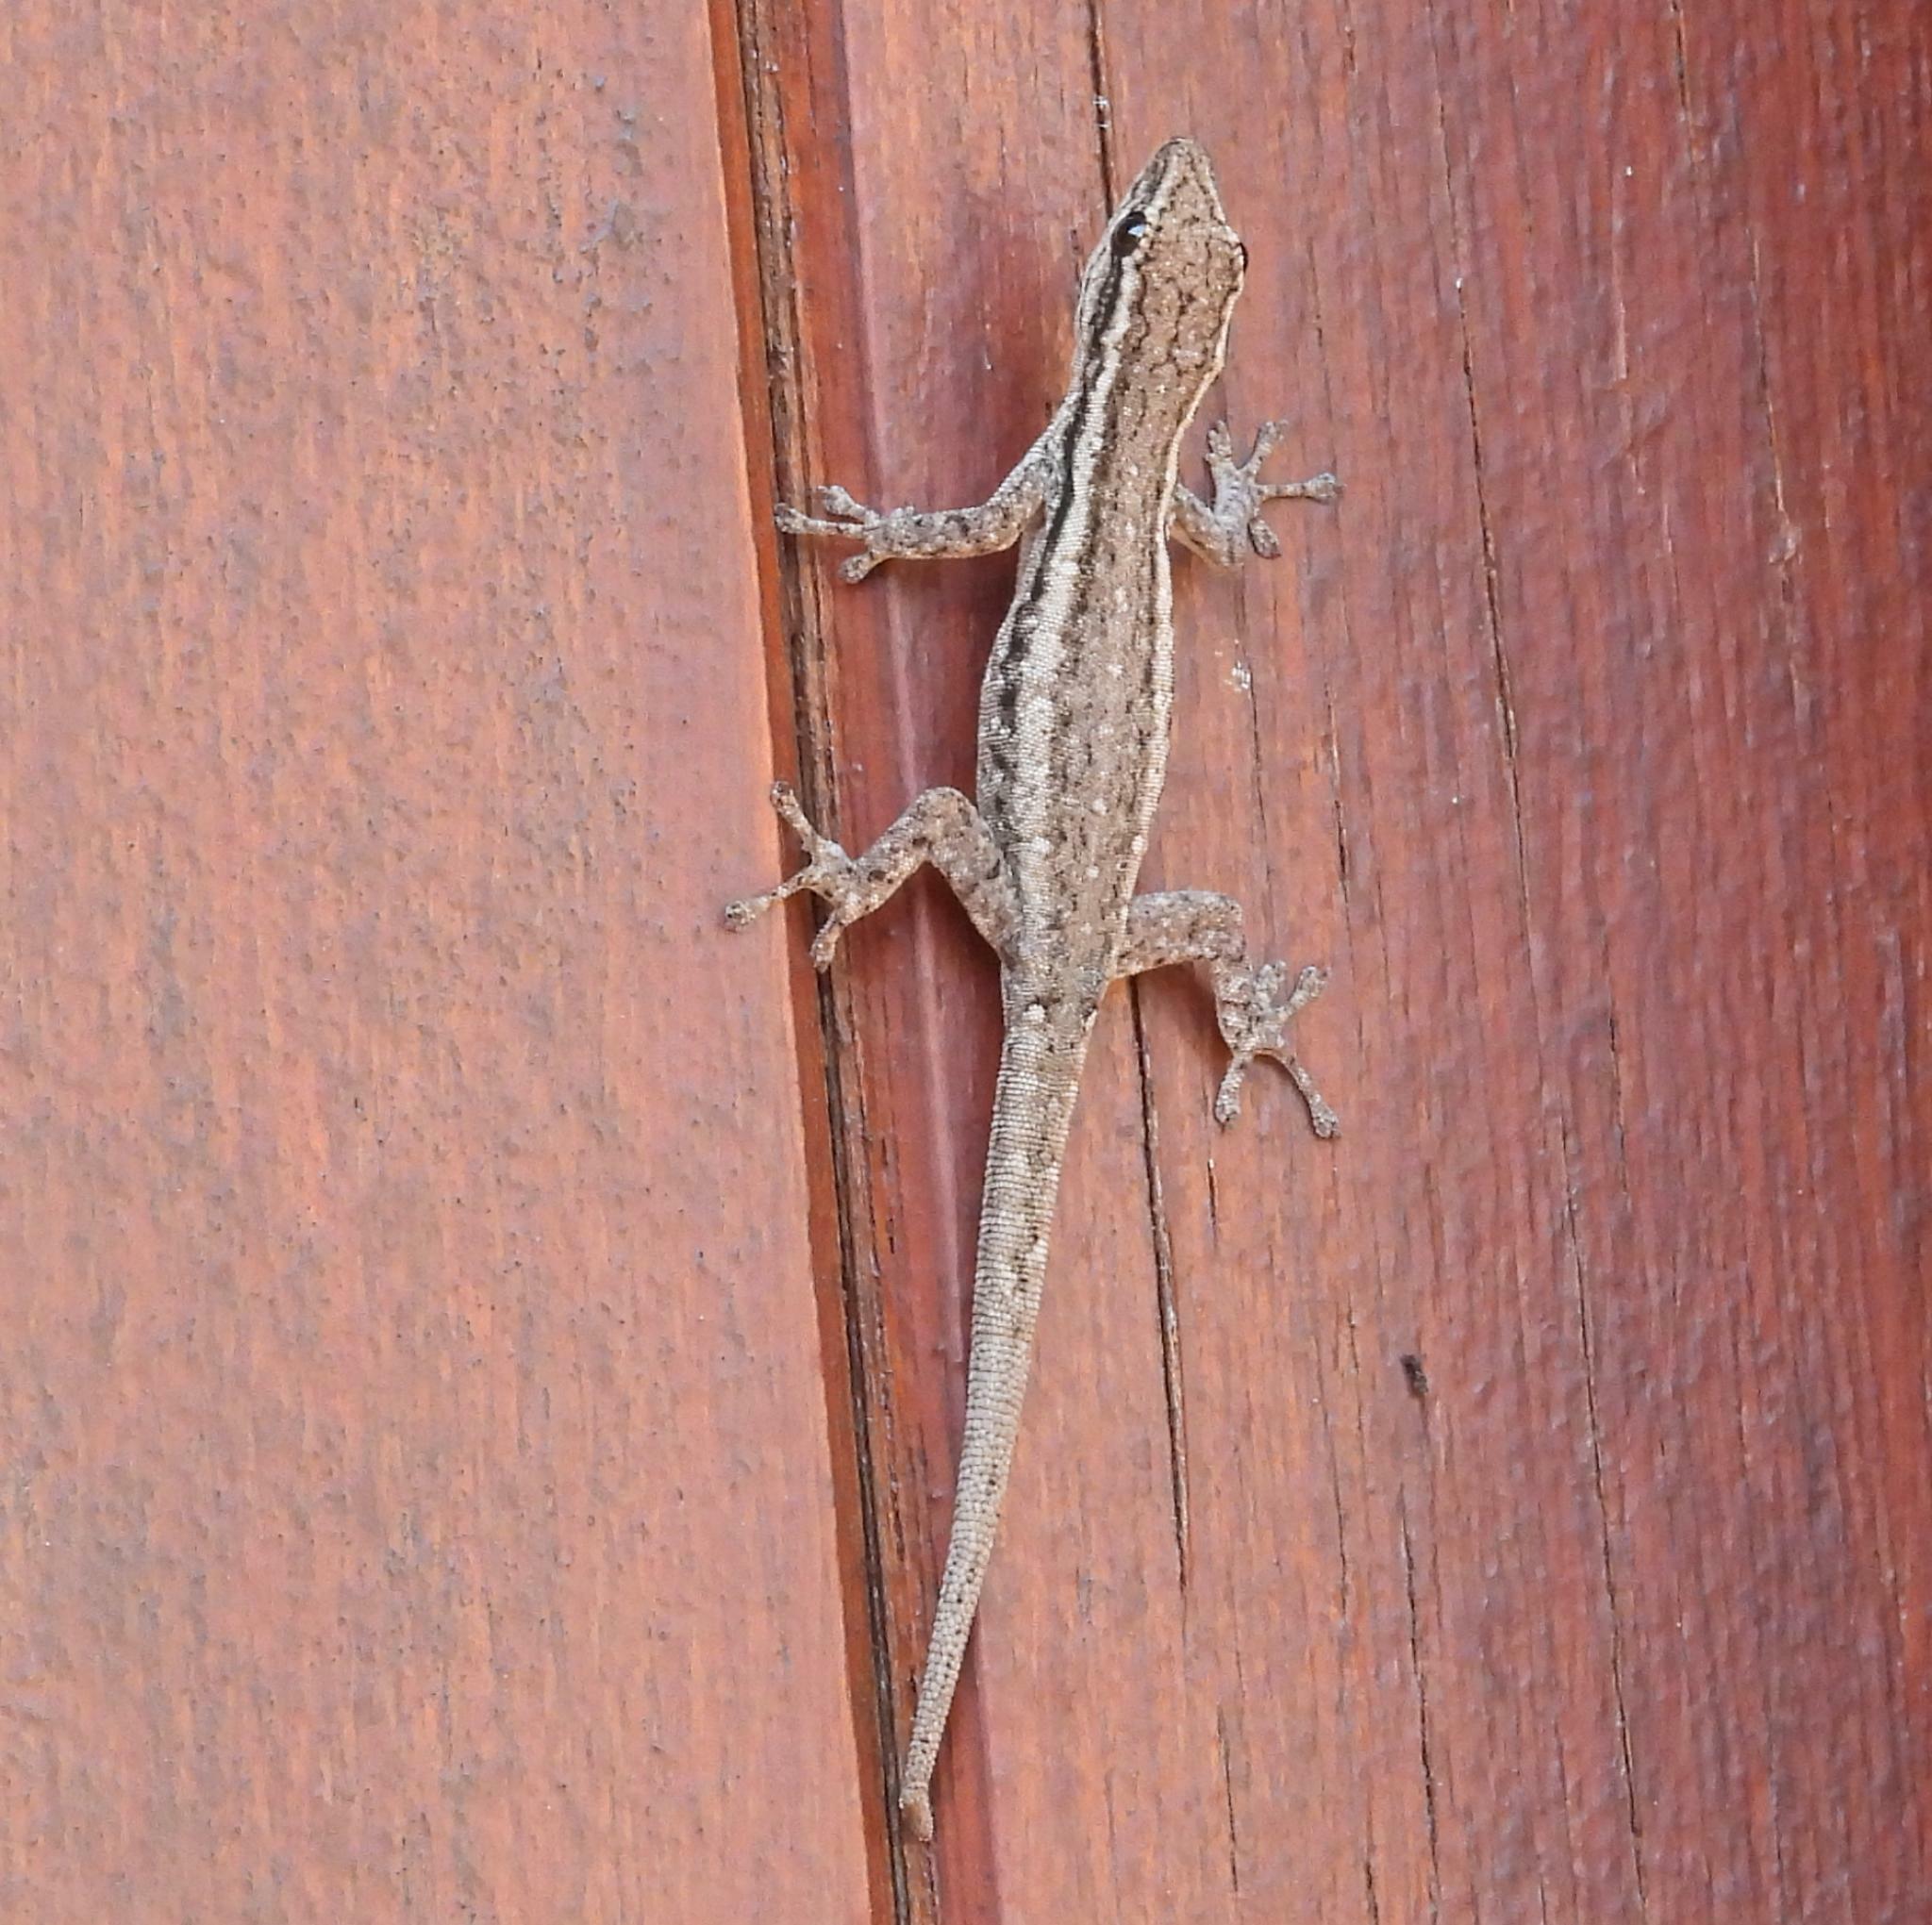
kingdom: Animalia
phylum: Chordata
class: Squamata
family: Gekkonidae
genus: Lygodactylus
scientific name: Lygodactylus capensis
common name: Cape dwarf gecko
